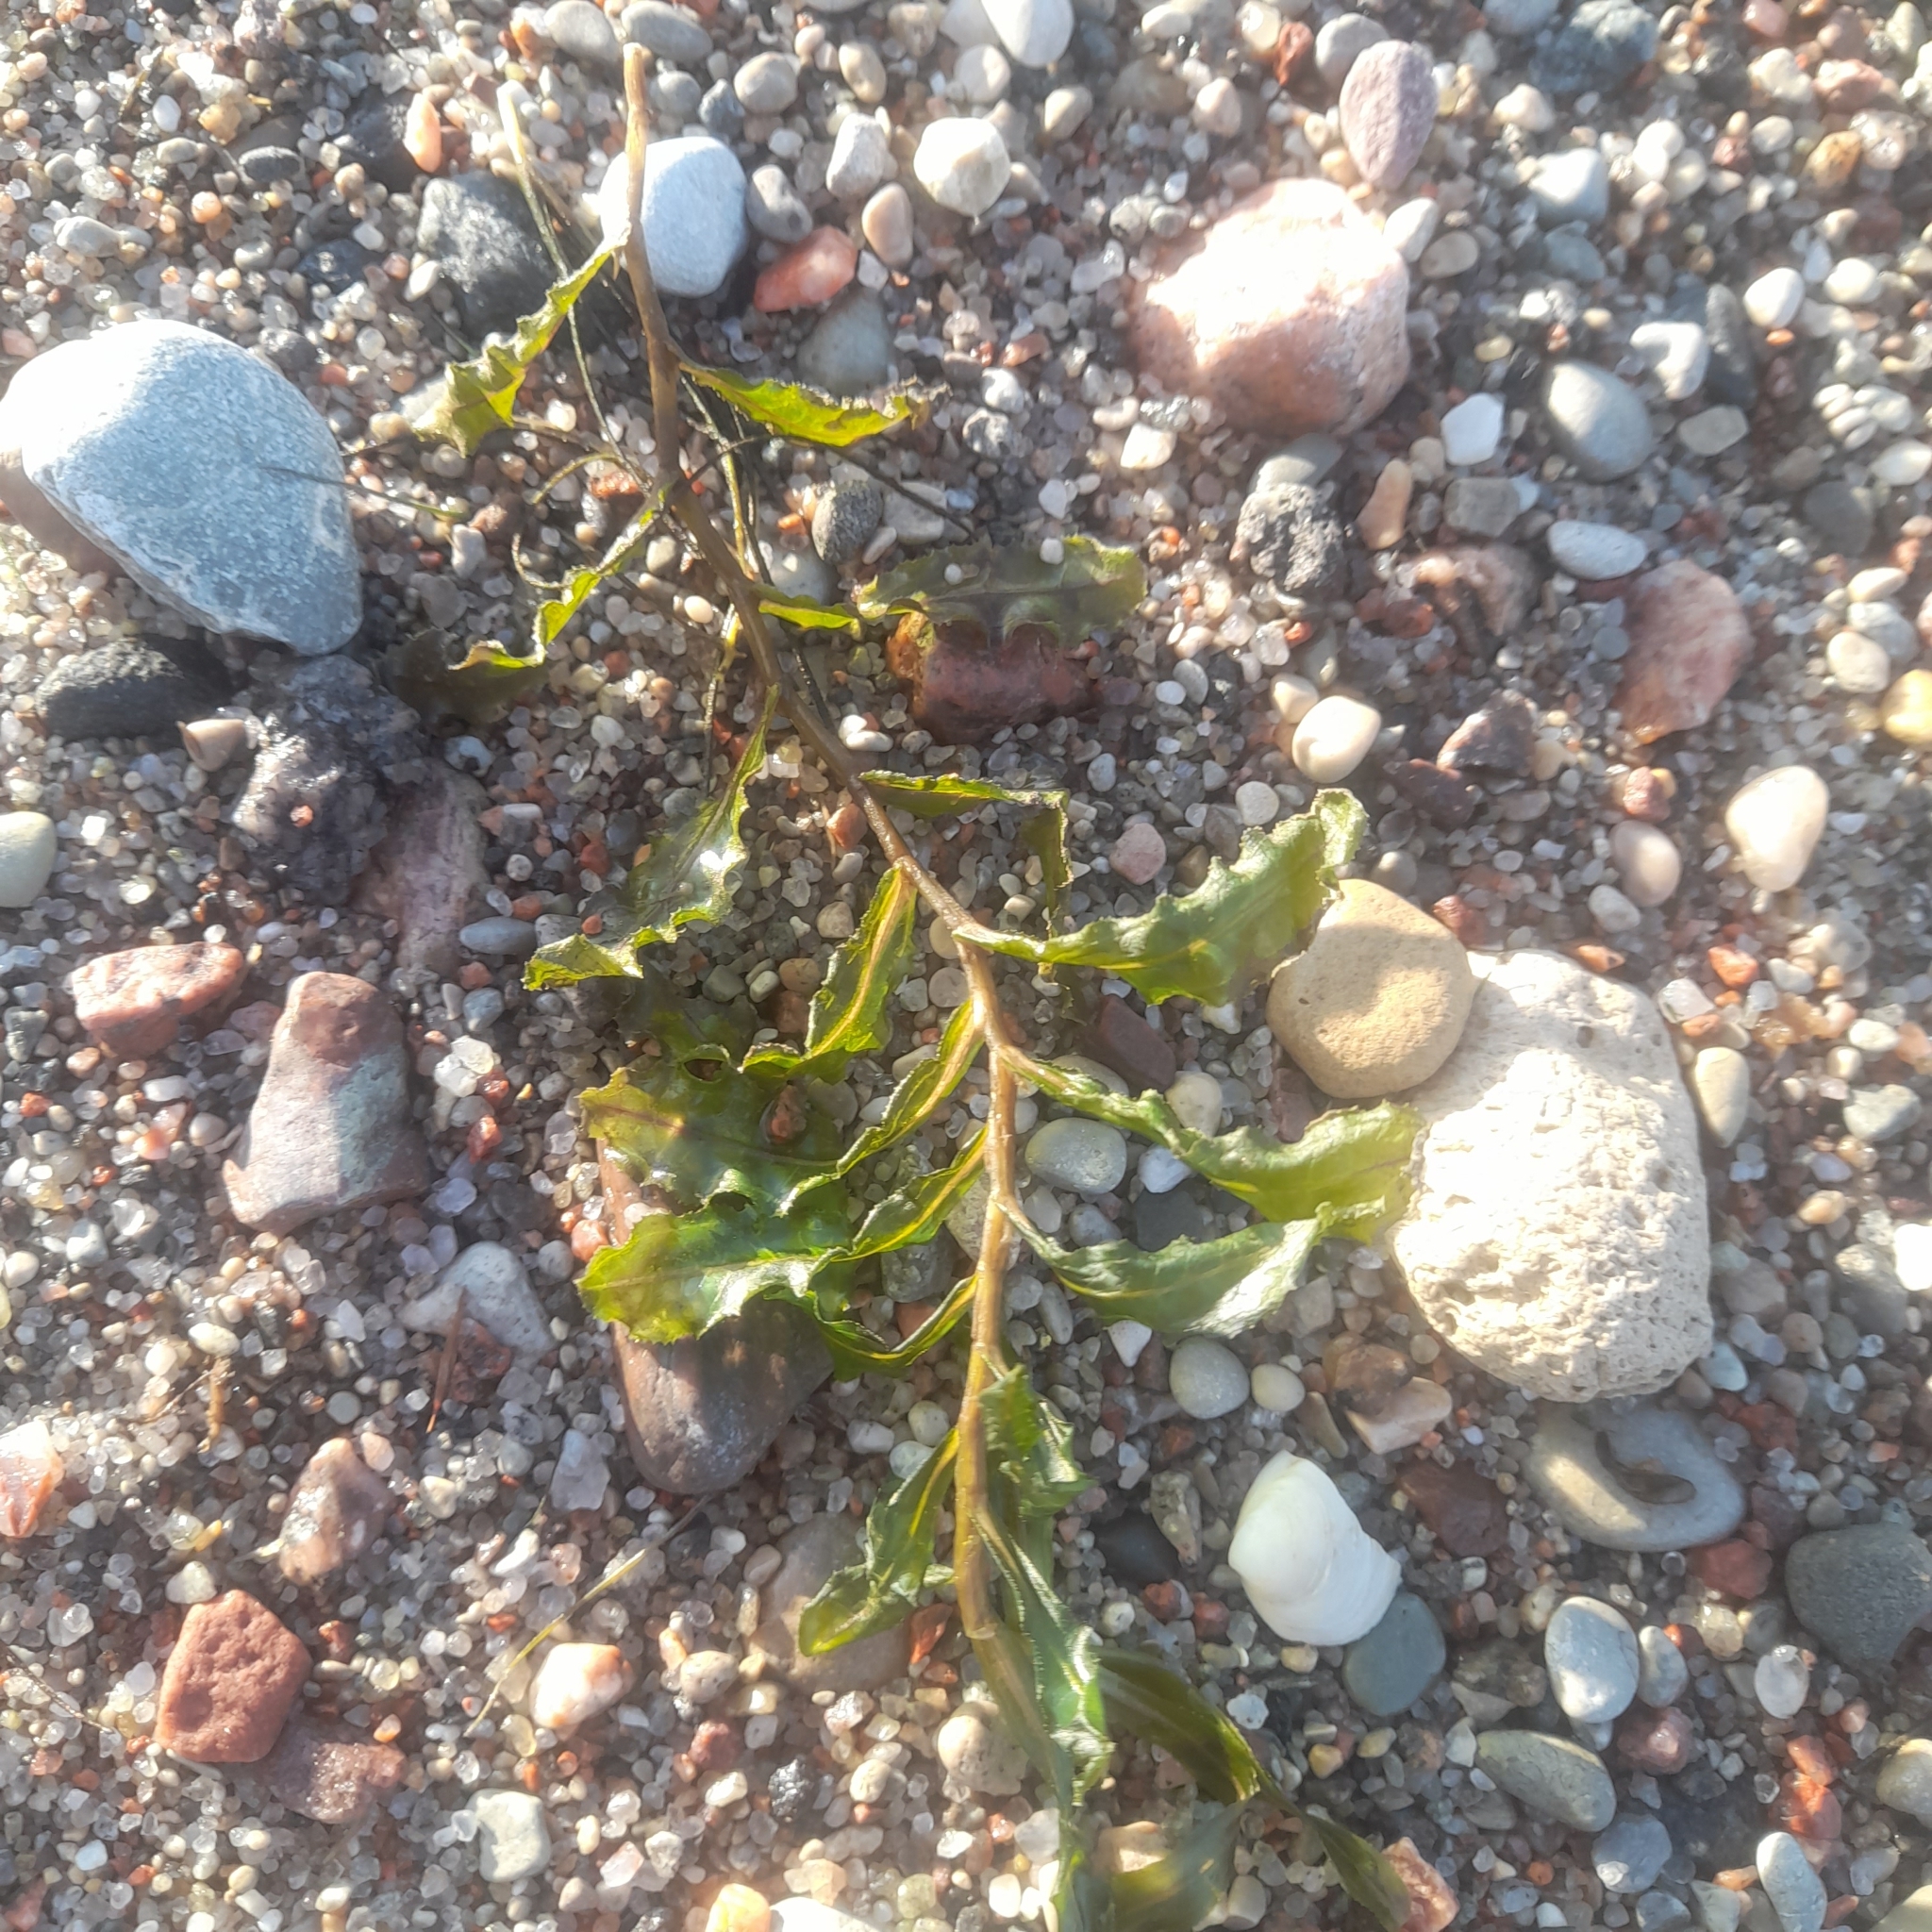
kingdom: Plantae
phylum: Tracheophyta
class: Liliopsida
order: Alismatales
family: Potamogetonaceae
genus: Potamogeton
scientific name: Potamogeton perfoliatus
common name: Perfoliate pondweed
